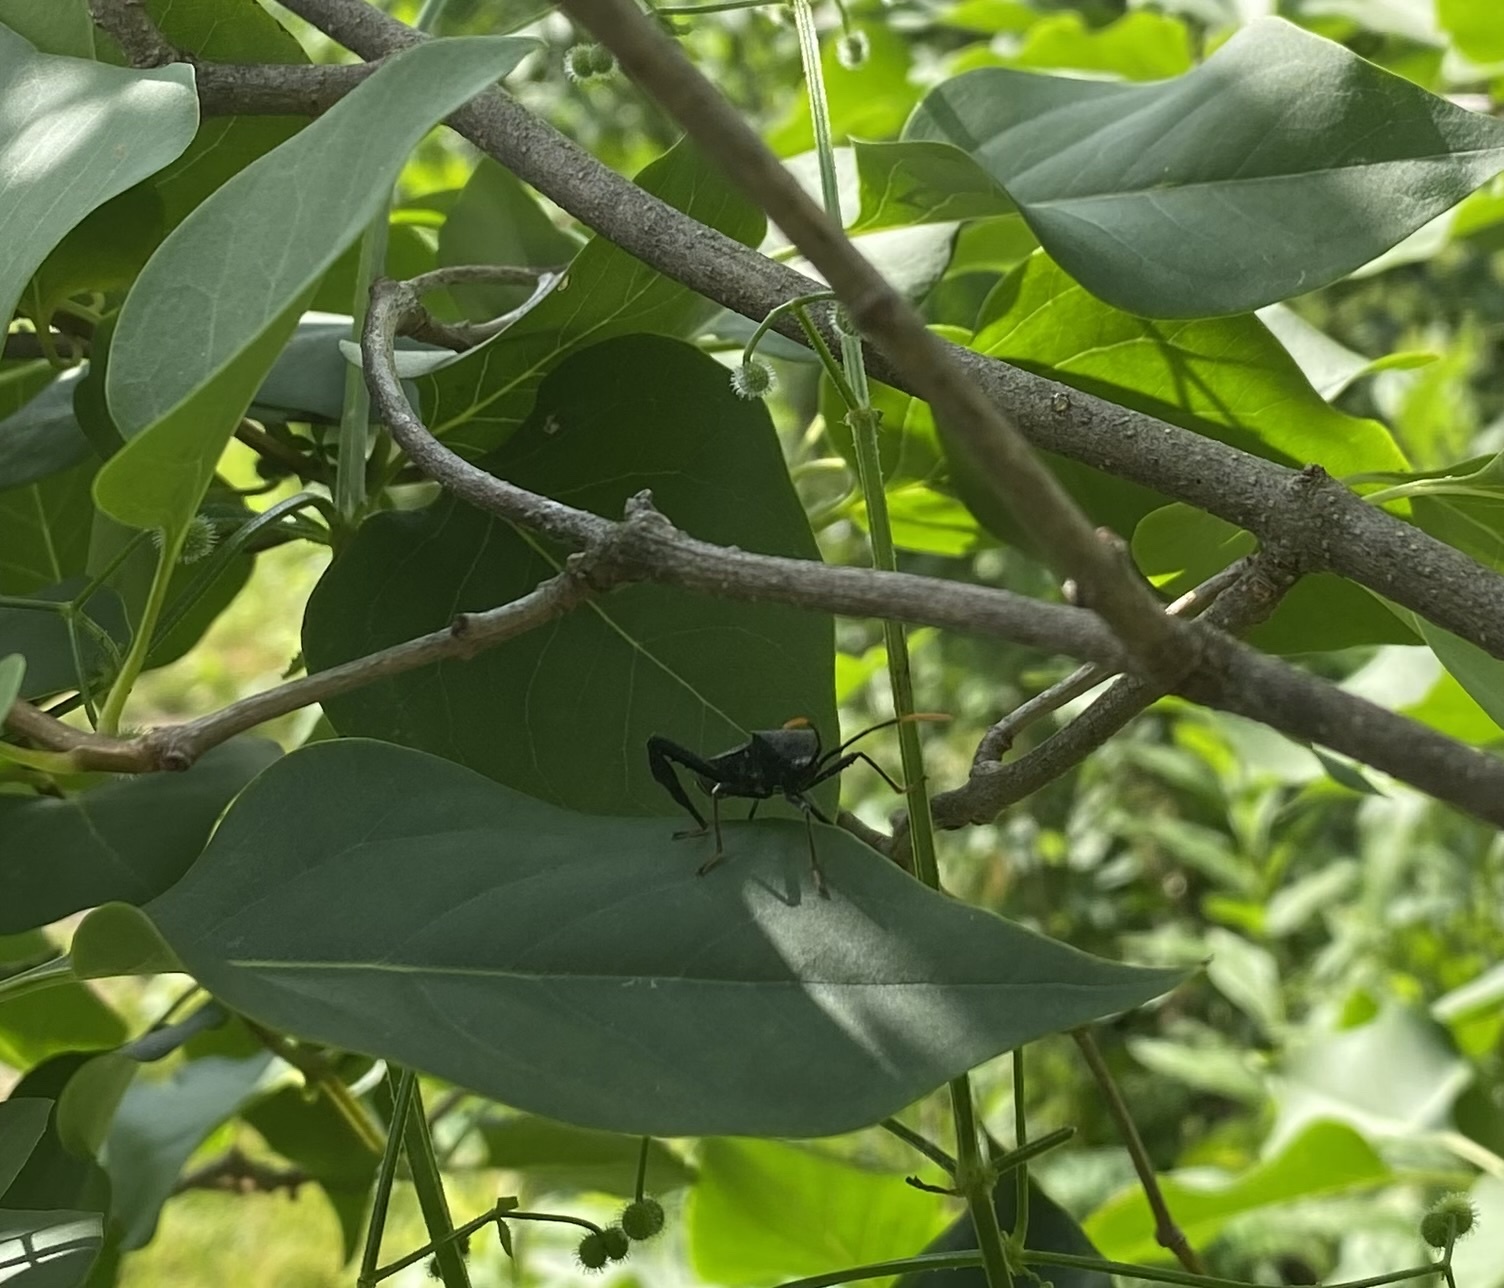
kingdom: Animalia
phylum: Arthropoda
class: Insecta
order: Hemiptera
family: Coreidae
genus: Acanthocephala
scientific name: Acanthocephala terminalis
